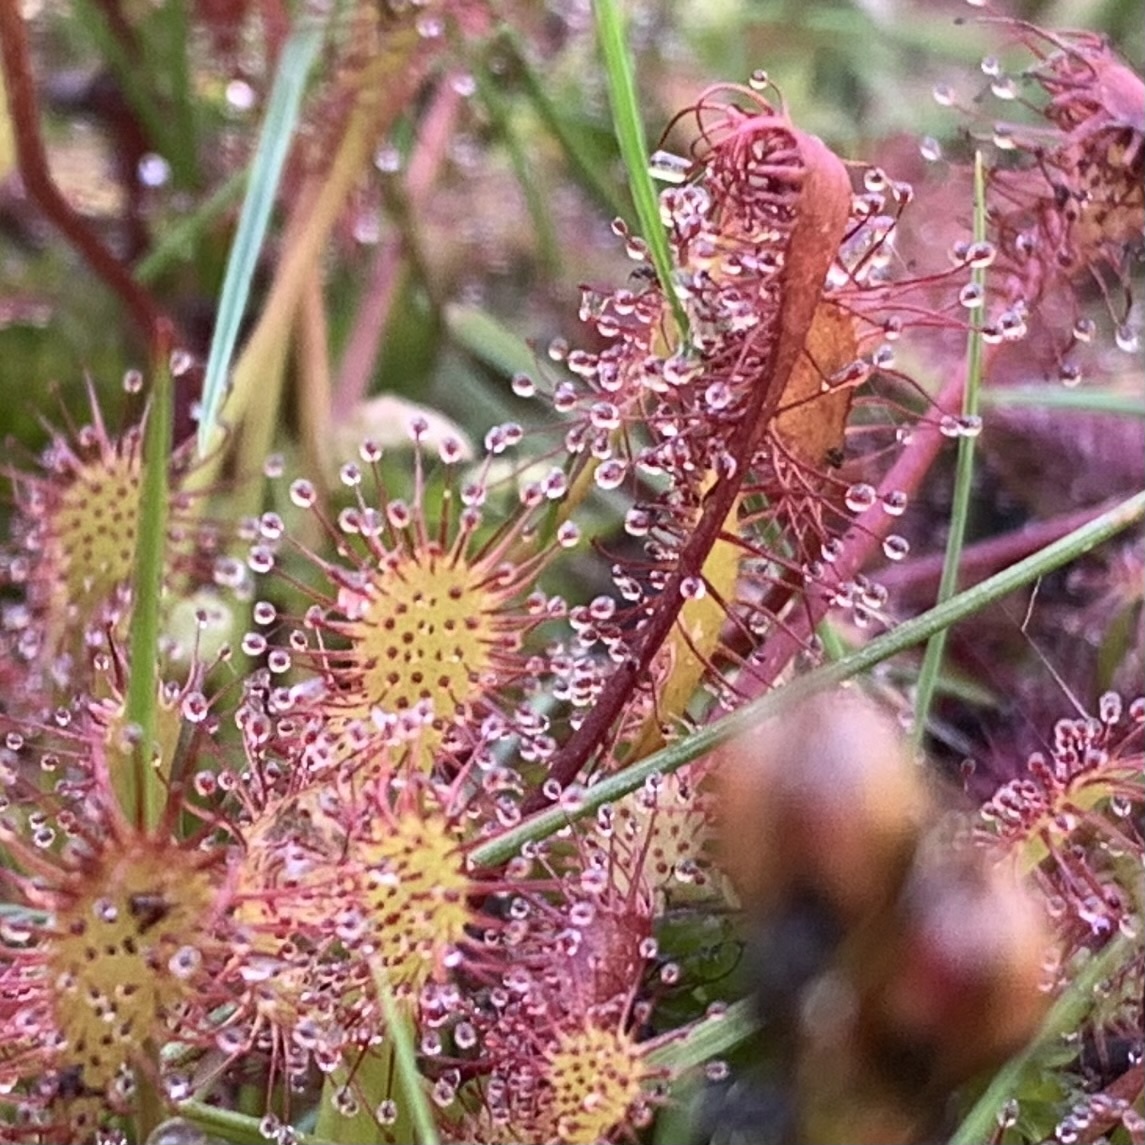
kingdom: Plantae
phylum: Tracheophyta
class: Magnoliopsida
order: Caryophyllales
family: Droseraceae
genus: Drosera
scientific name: Drosera intermedia
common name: Oblong-leaved sundew
